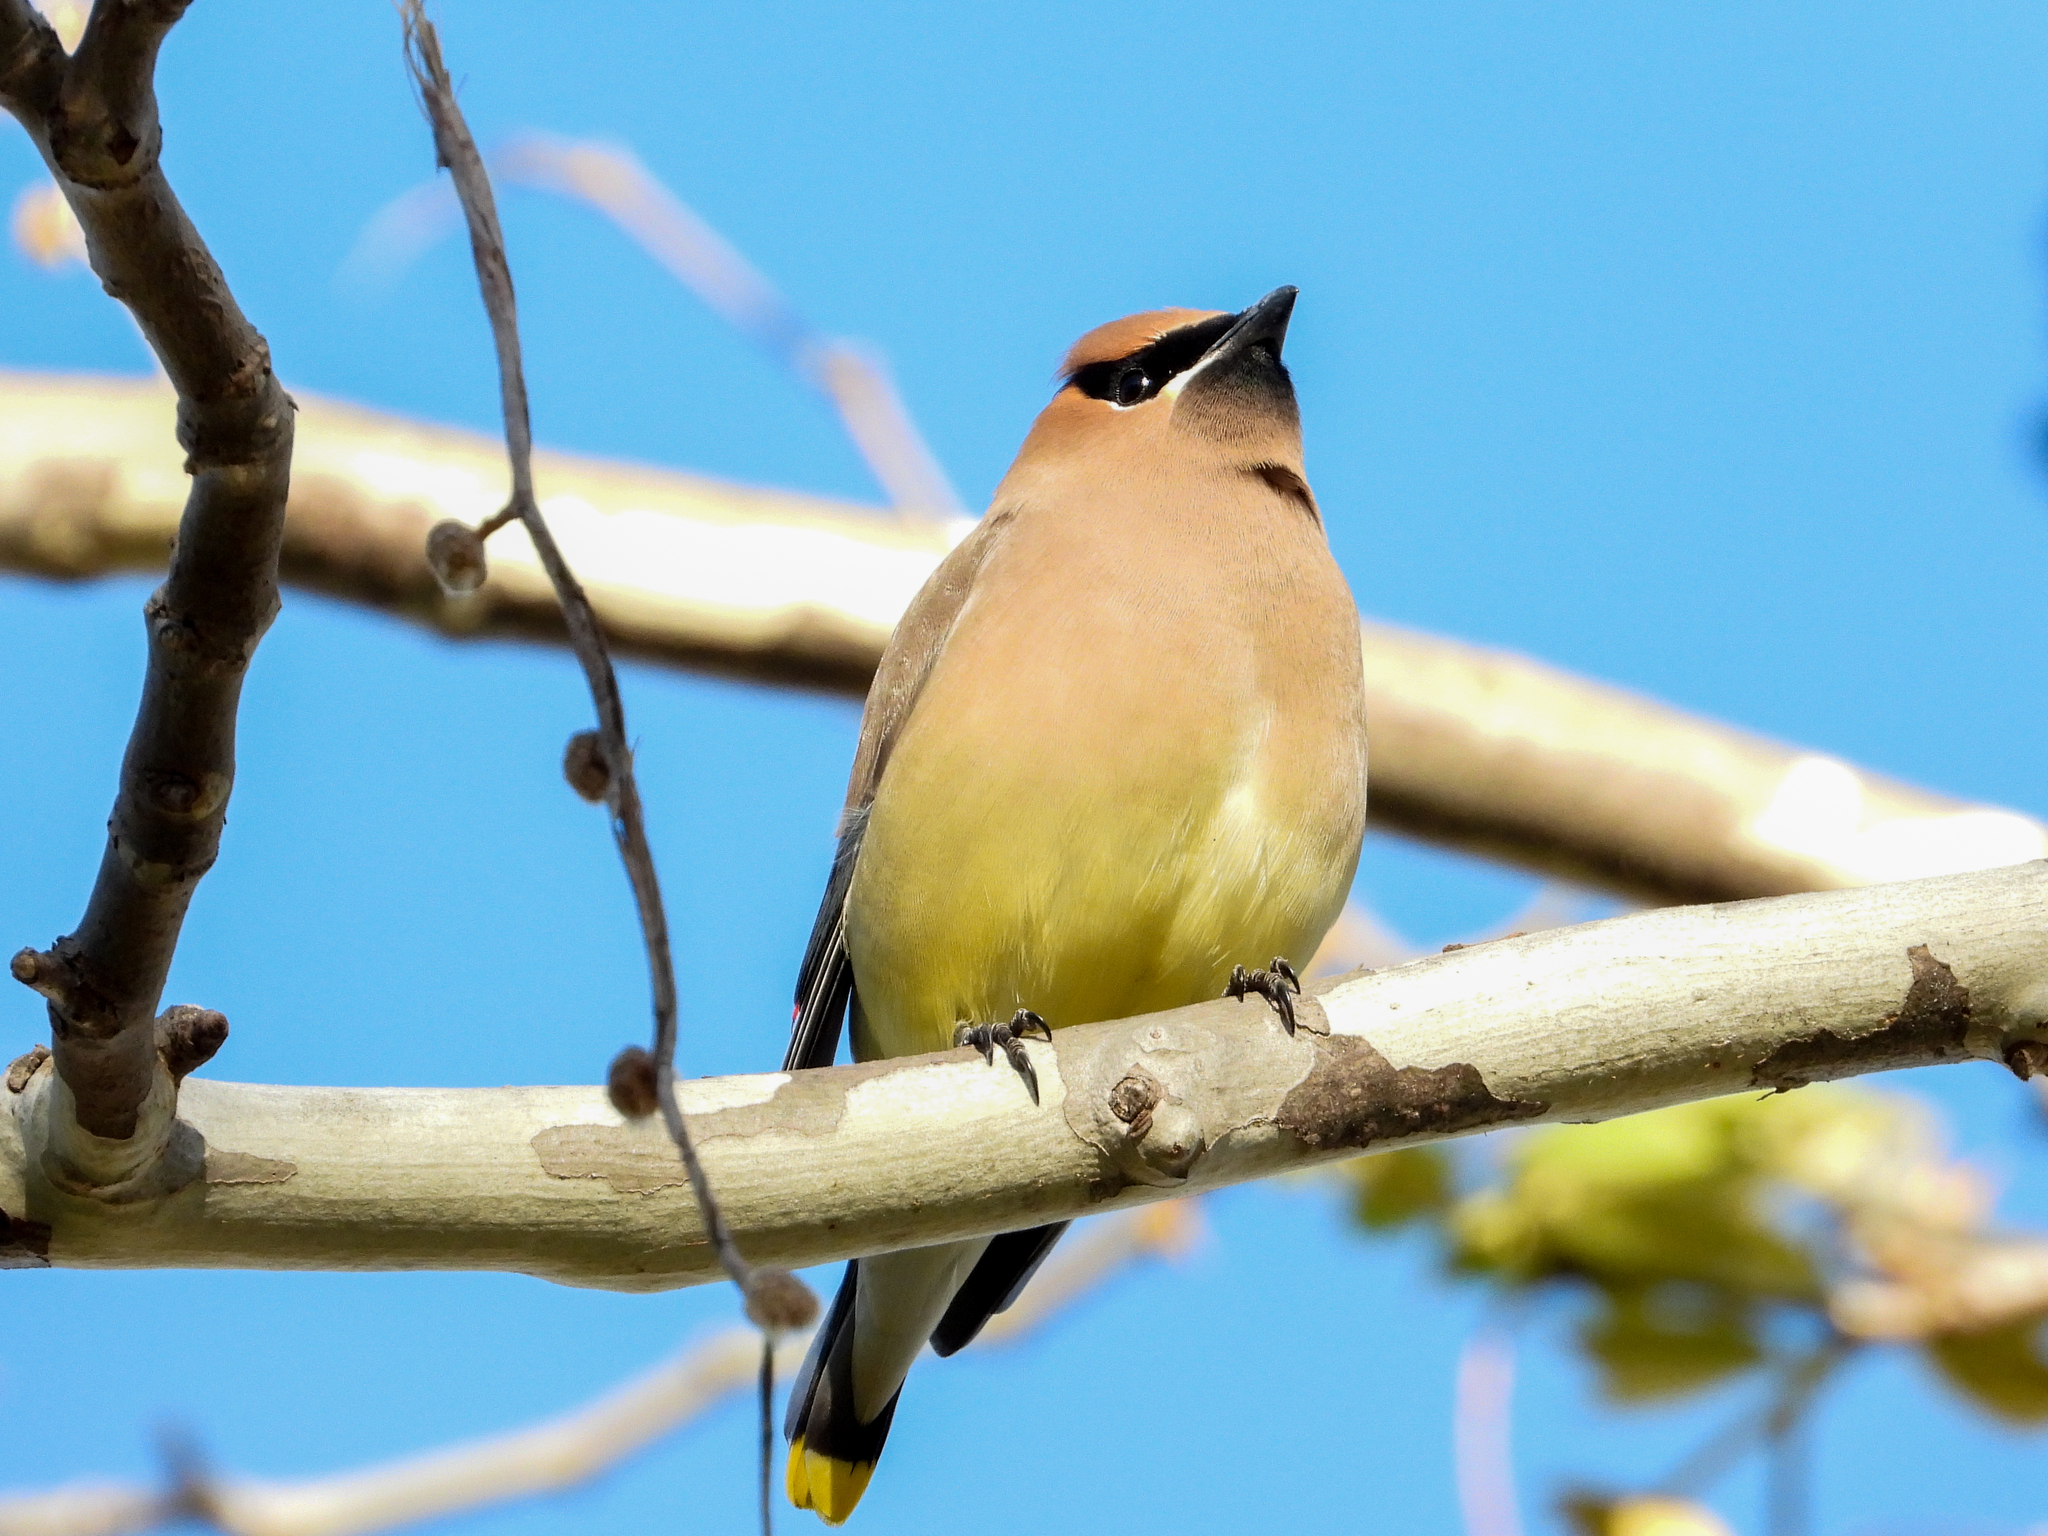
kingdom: Animalia
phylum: Chordata
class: Aves
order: Passeriformes
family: Bombycillidae
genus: Bombycilla
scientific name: Bombycilla cedrorum
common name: Cedar waxwing
